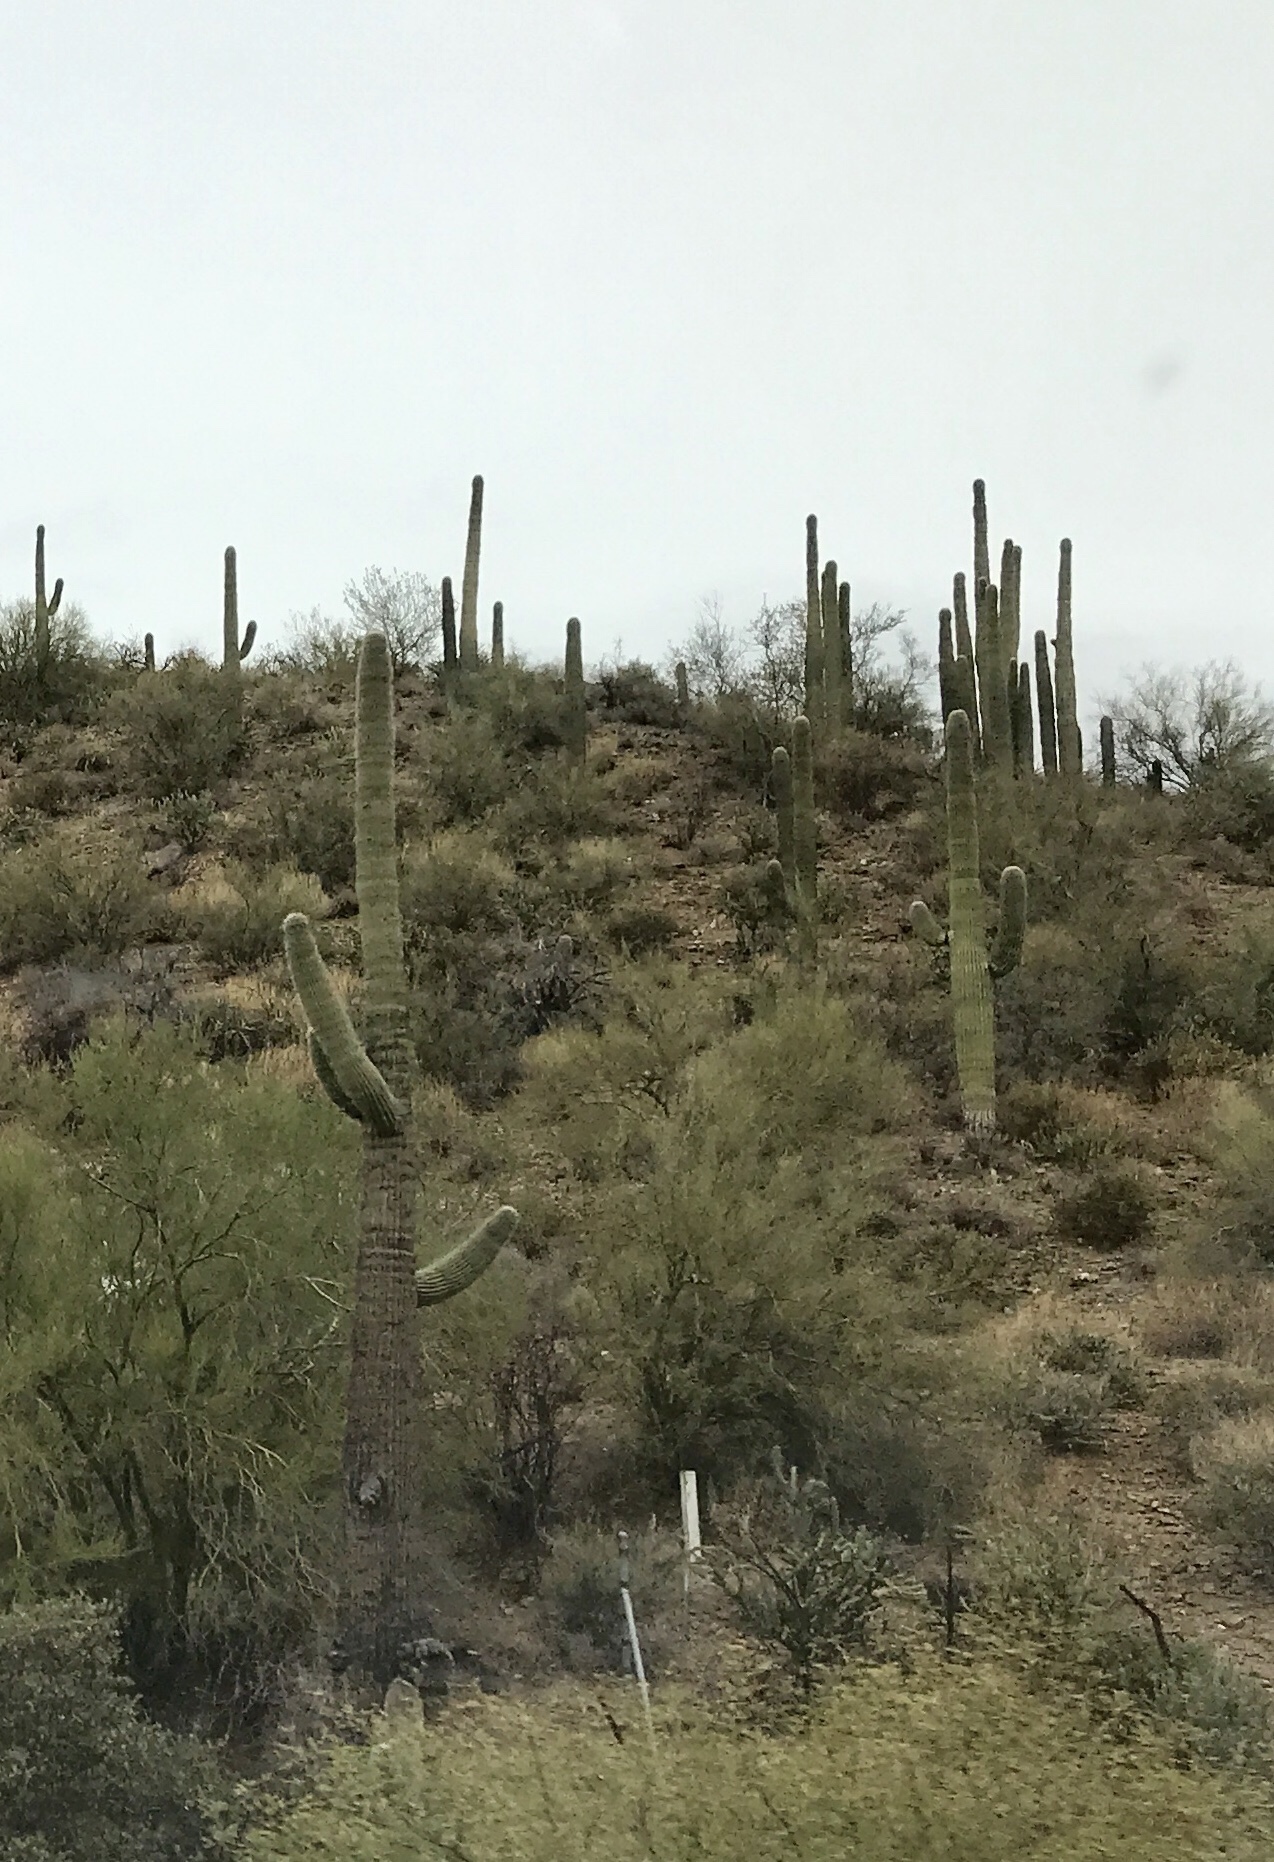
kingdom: Plantae
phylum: Tracheophyta
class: Magnoliopsida
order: Caryophyllales
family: Cactaceae
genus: Carnegiea
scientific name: Carnegiea gigantea
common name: Saguaro
